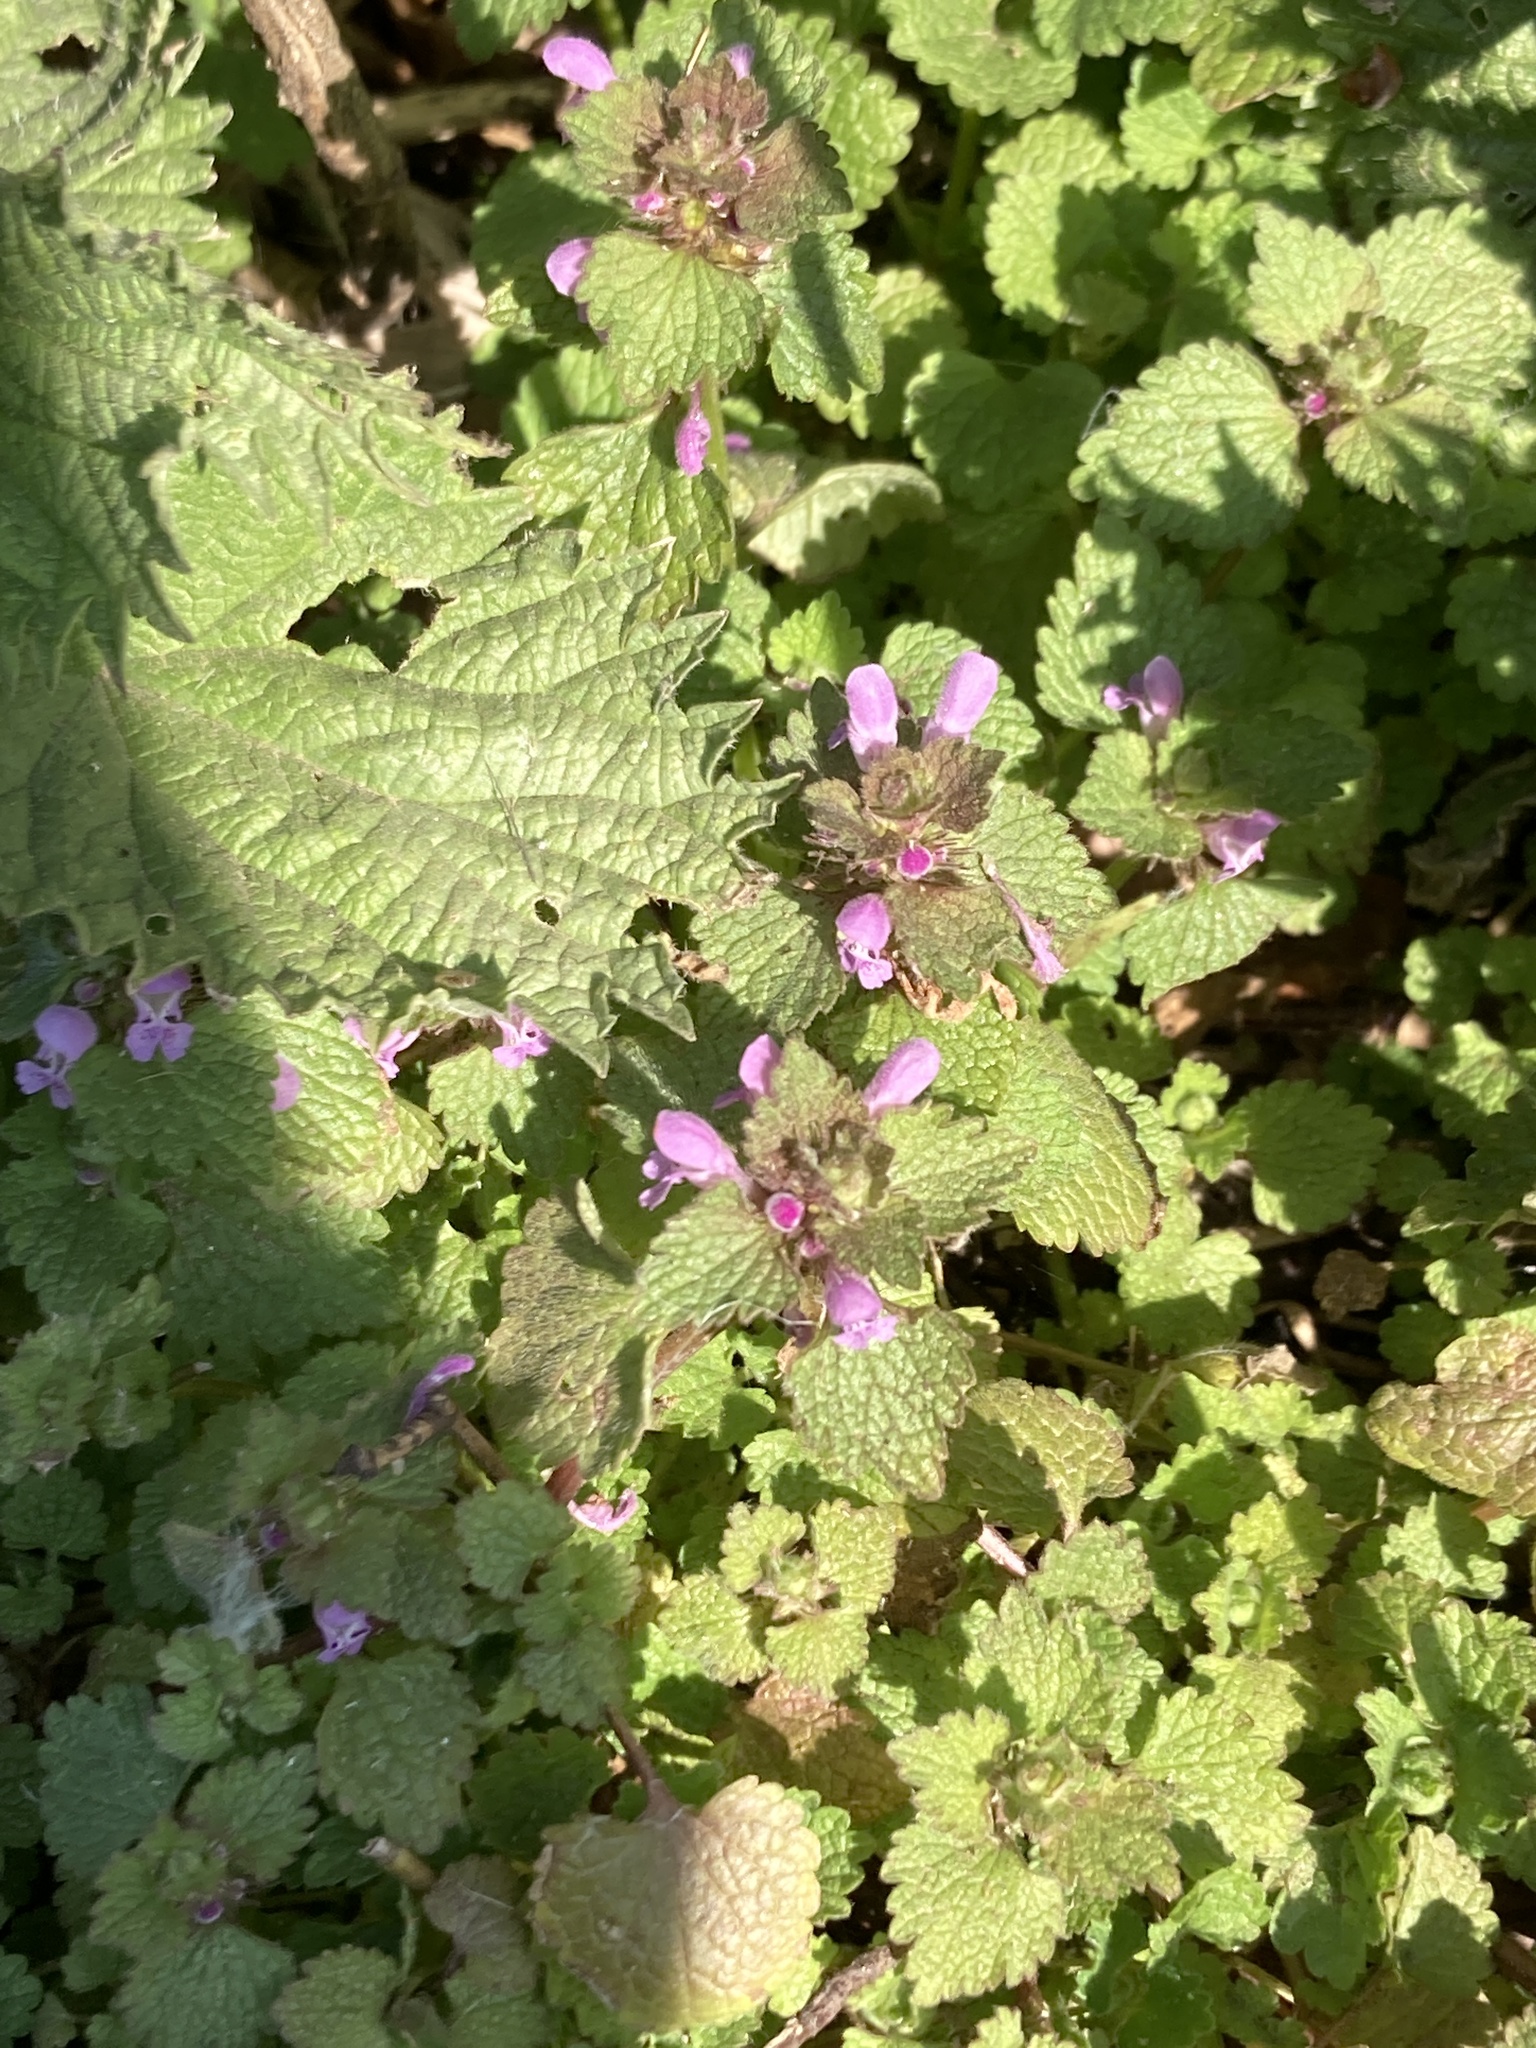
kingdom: Plantae
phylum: Tracheophyta
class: Magnoliopsida
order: Lamiales
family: Lamiaceae
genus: Lamium
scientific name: Lamium purpureum
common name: Red dead-nettle
